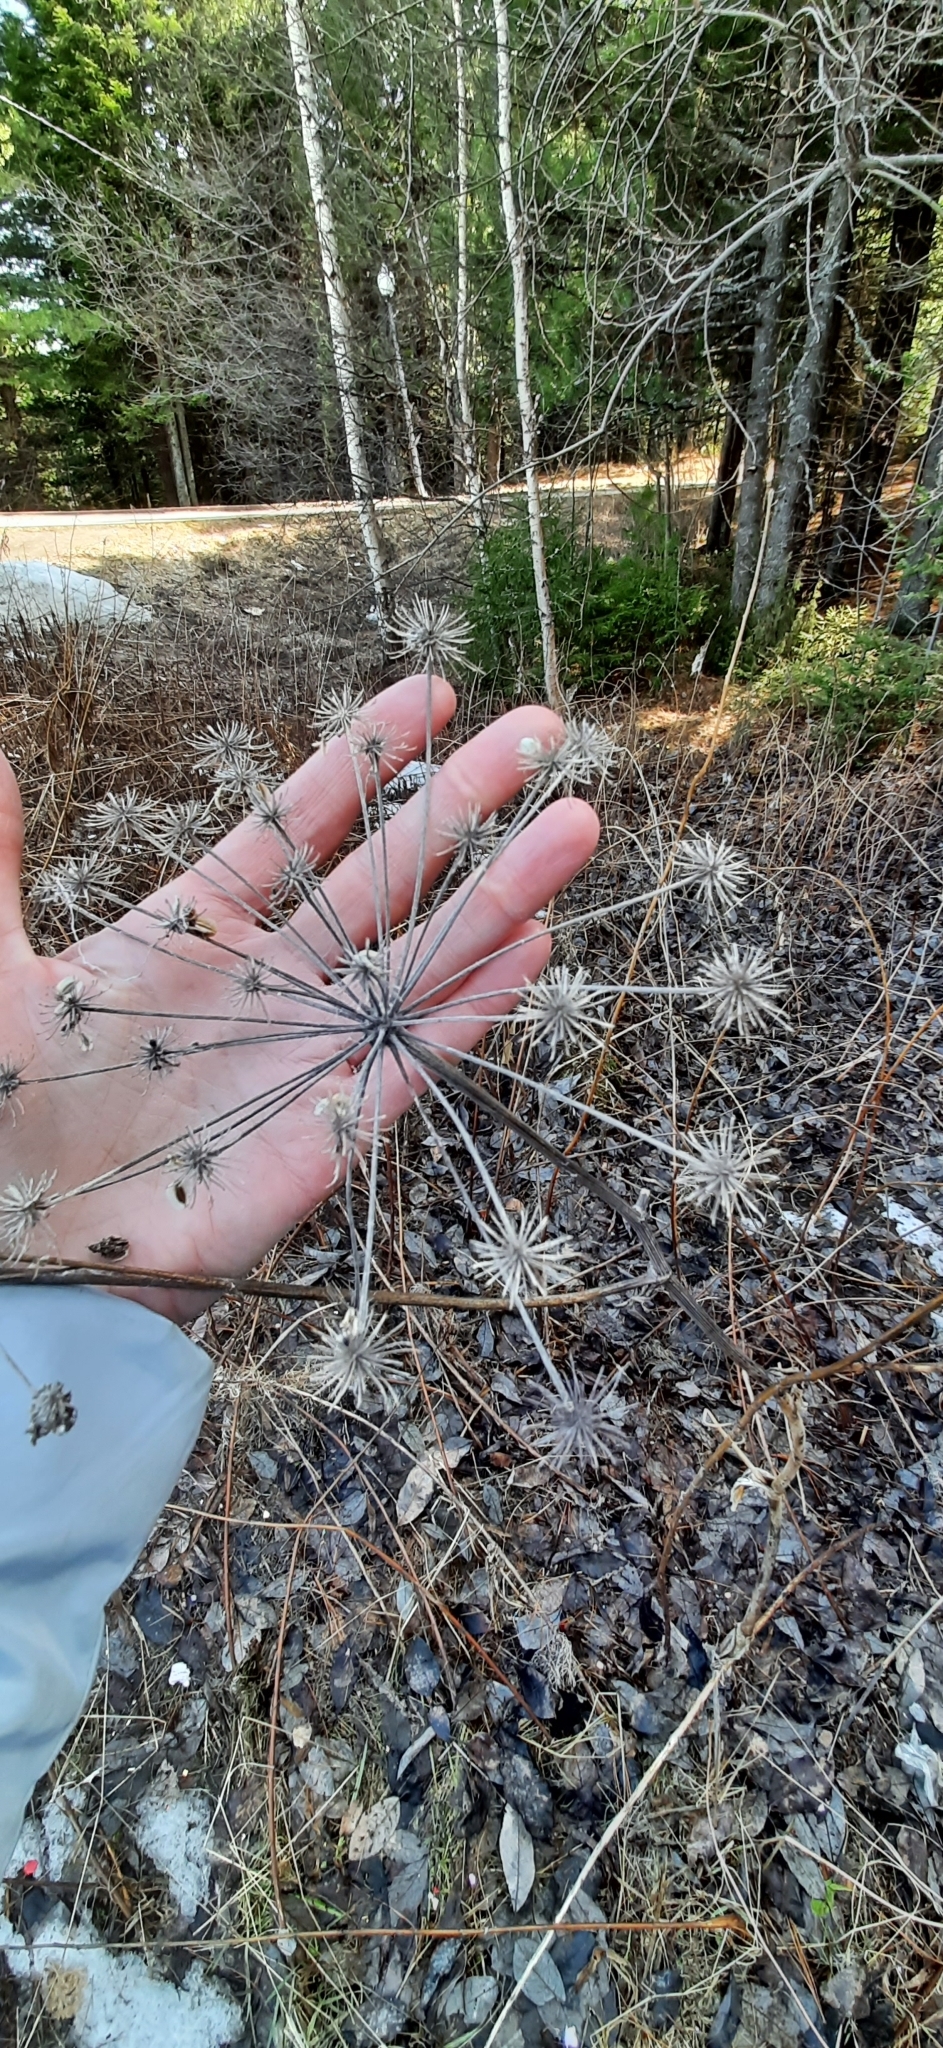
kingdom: Plantae
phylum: Tracheophyta
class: Magnoliopsida
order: Apiales
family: Apiaceae
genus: Angelica
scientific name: Angelica sylvestris
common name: Wild angelica
